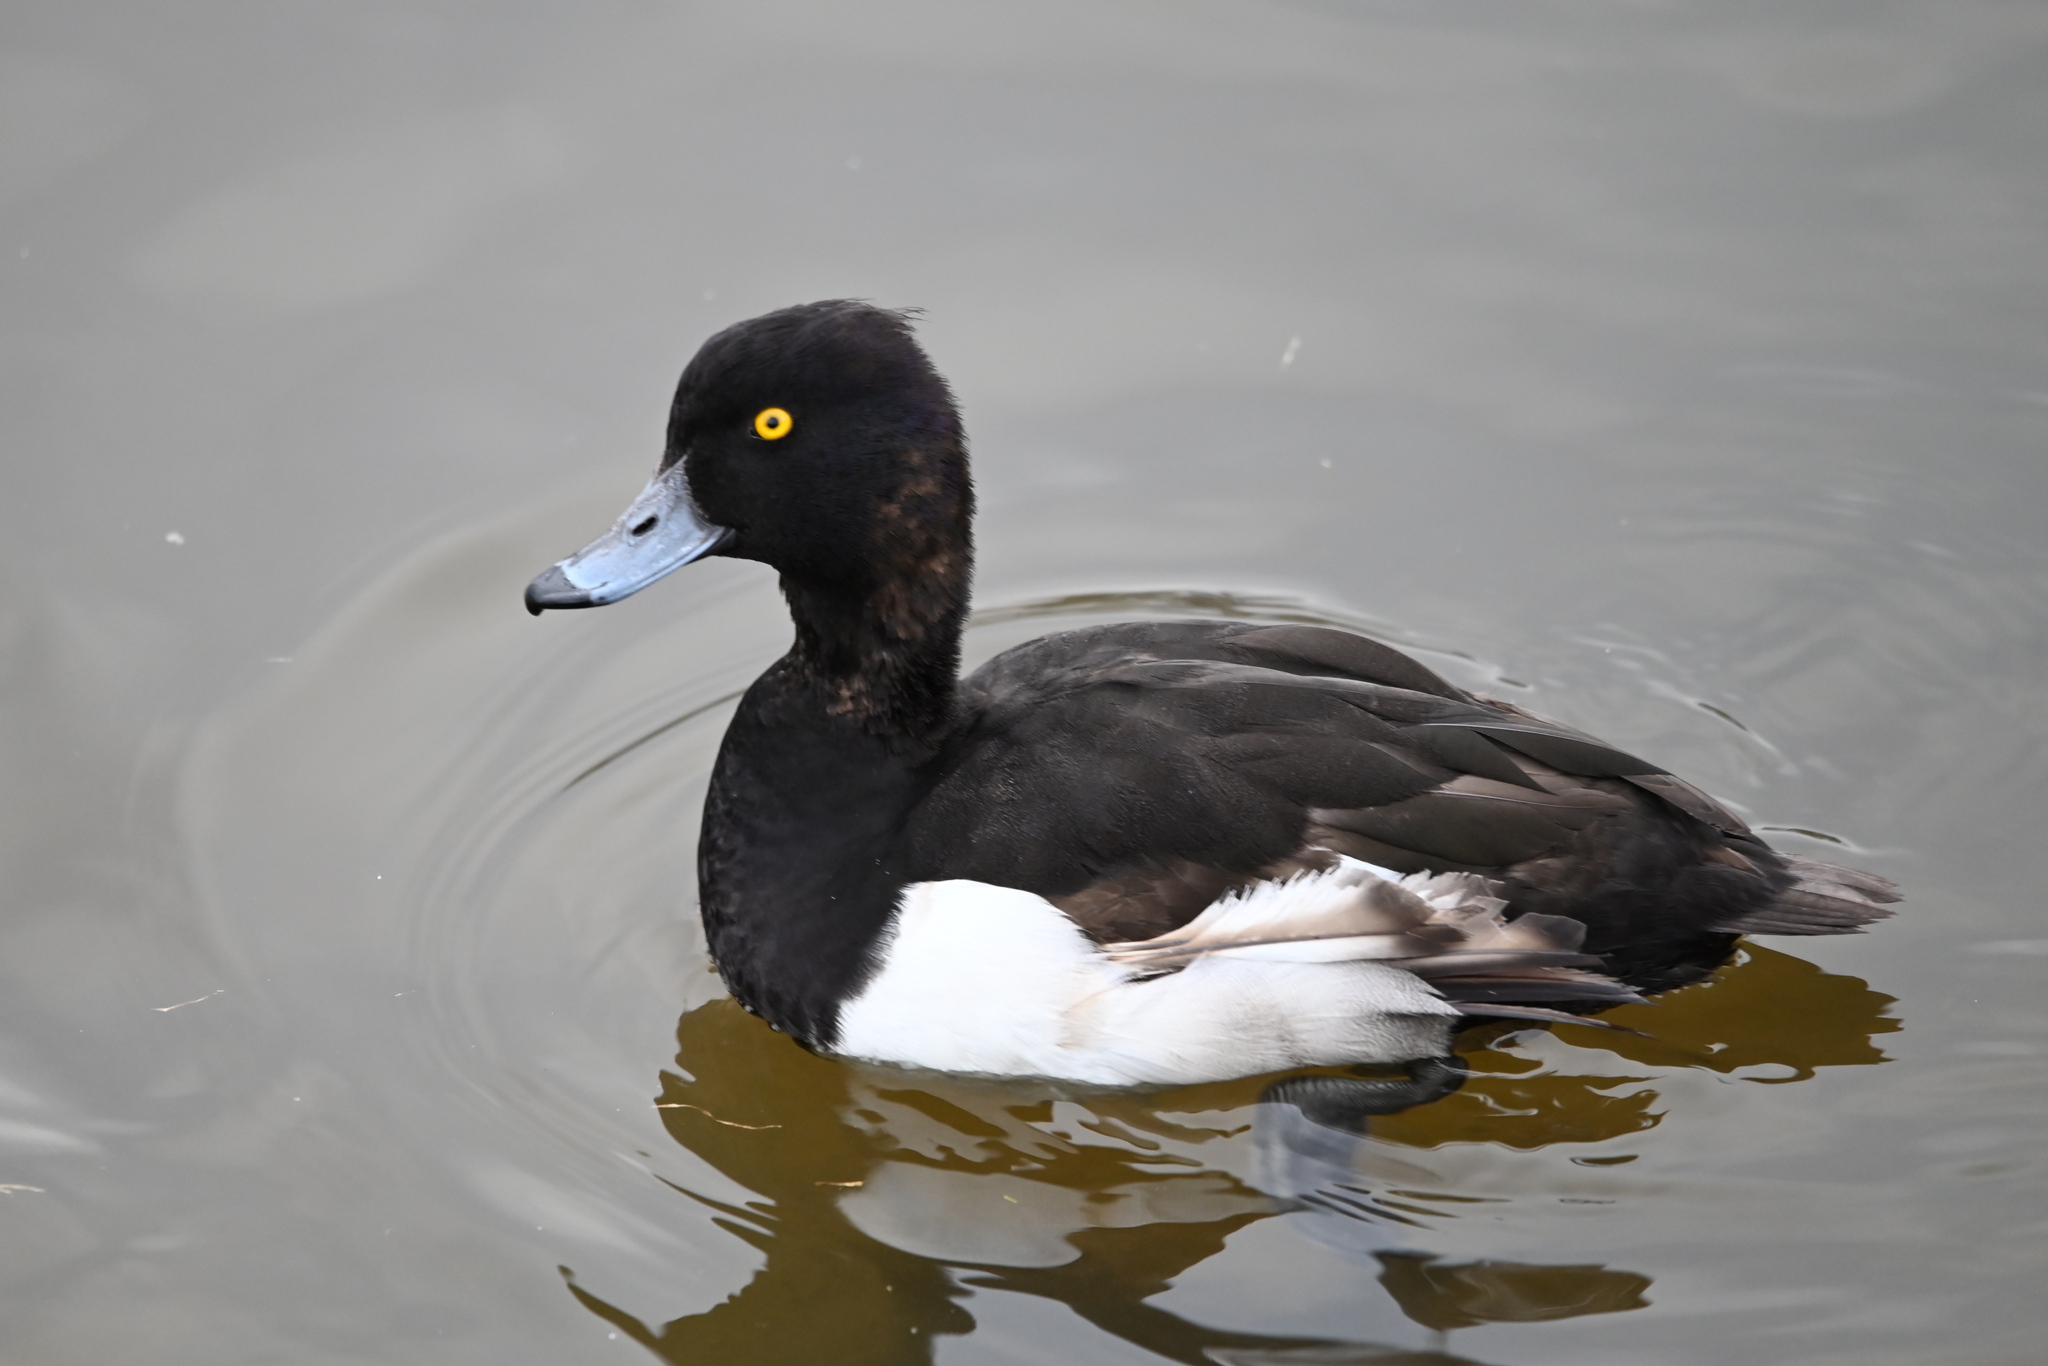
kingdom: Animalia
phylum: Chordata
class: Aves
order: Anseriformes
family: Anatidae
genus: Aythya
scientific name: Aythya fuligula
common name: Tufted duck
